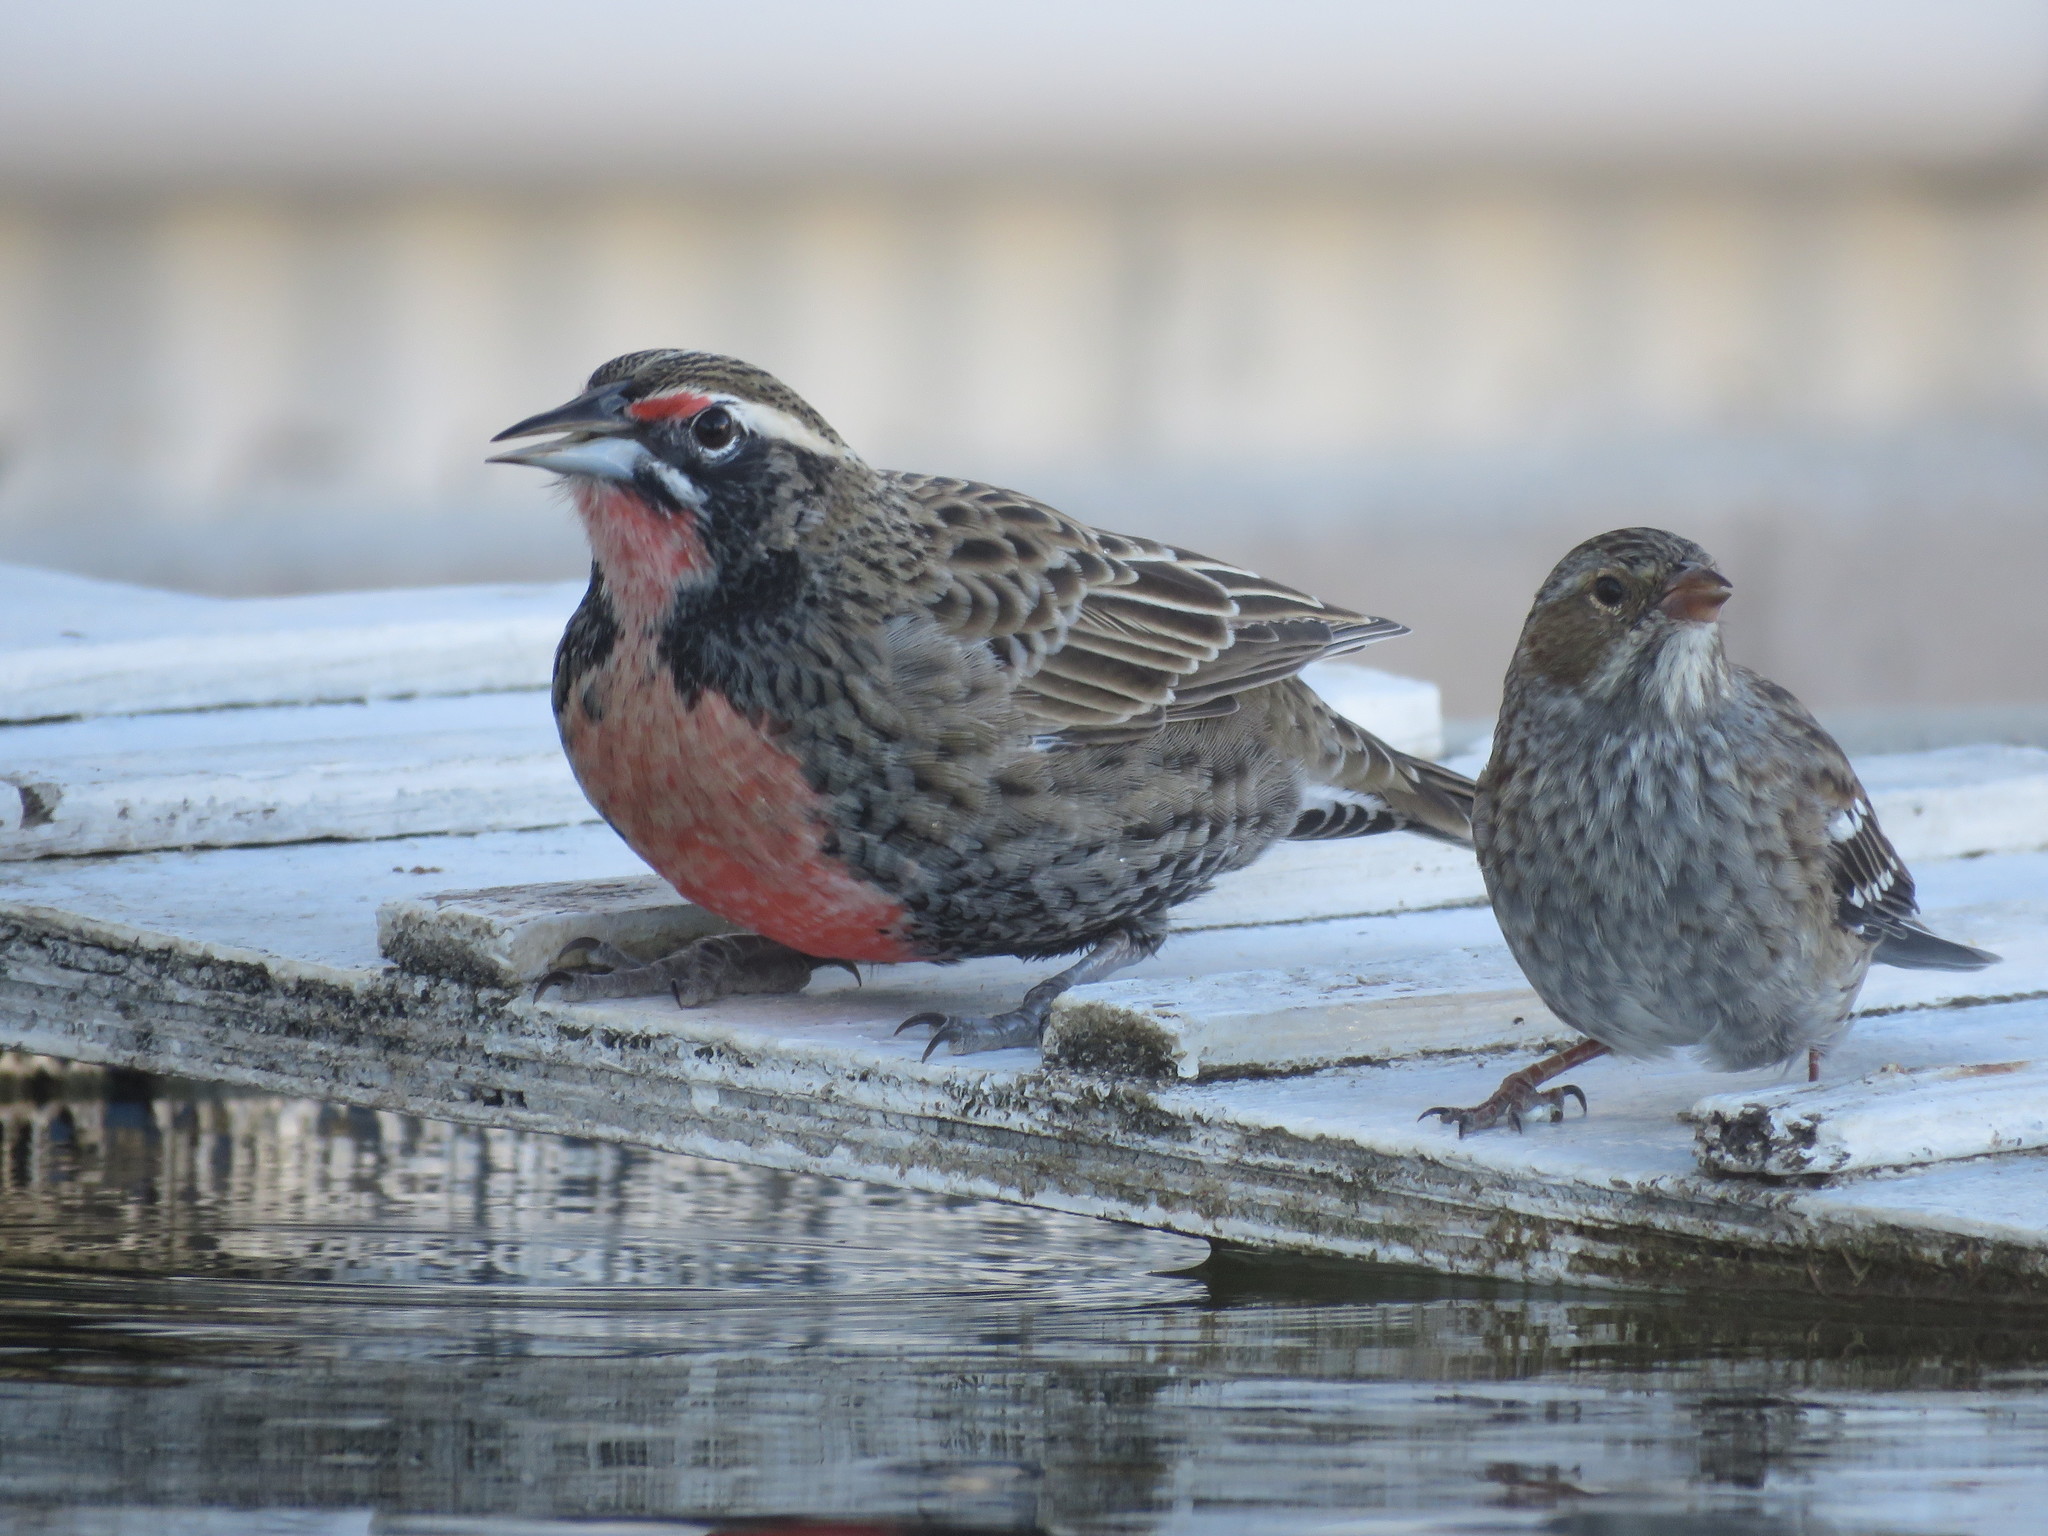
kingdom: Animalia
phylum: Chordata
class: Aves
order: Passeriformes
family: Icteridae
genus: Sturnella
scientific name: Sturnella loyca
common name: Long-tailed meadowlark
